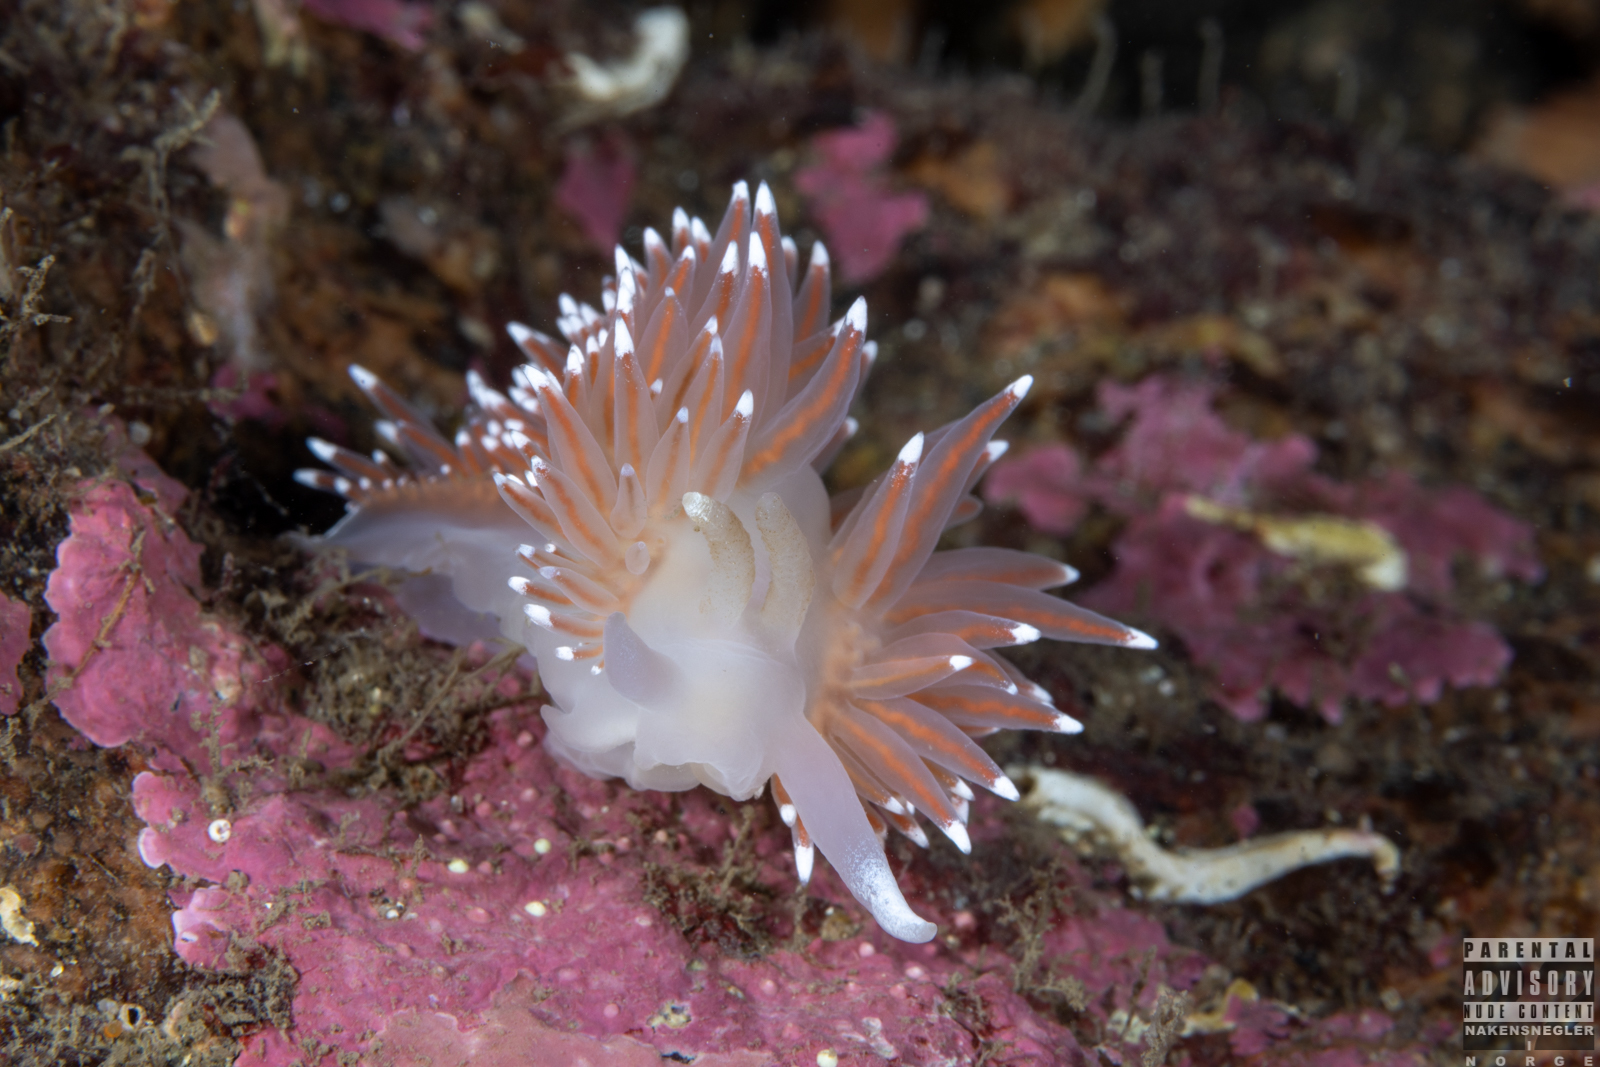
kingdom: Animalia
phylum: Mollusca
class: Gastropoda
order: Nudibranchia
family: Coryphellidae
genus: Coryphella
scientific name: Coryphella nobilis
